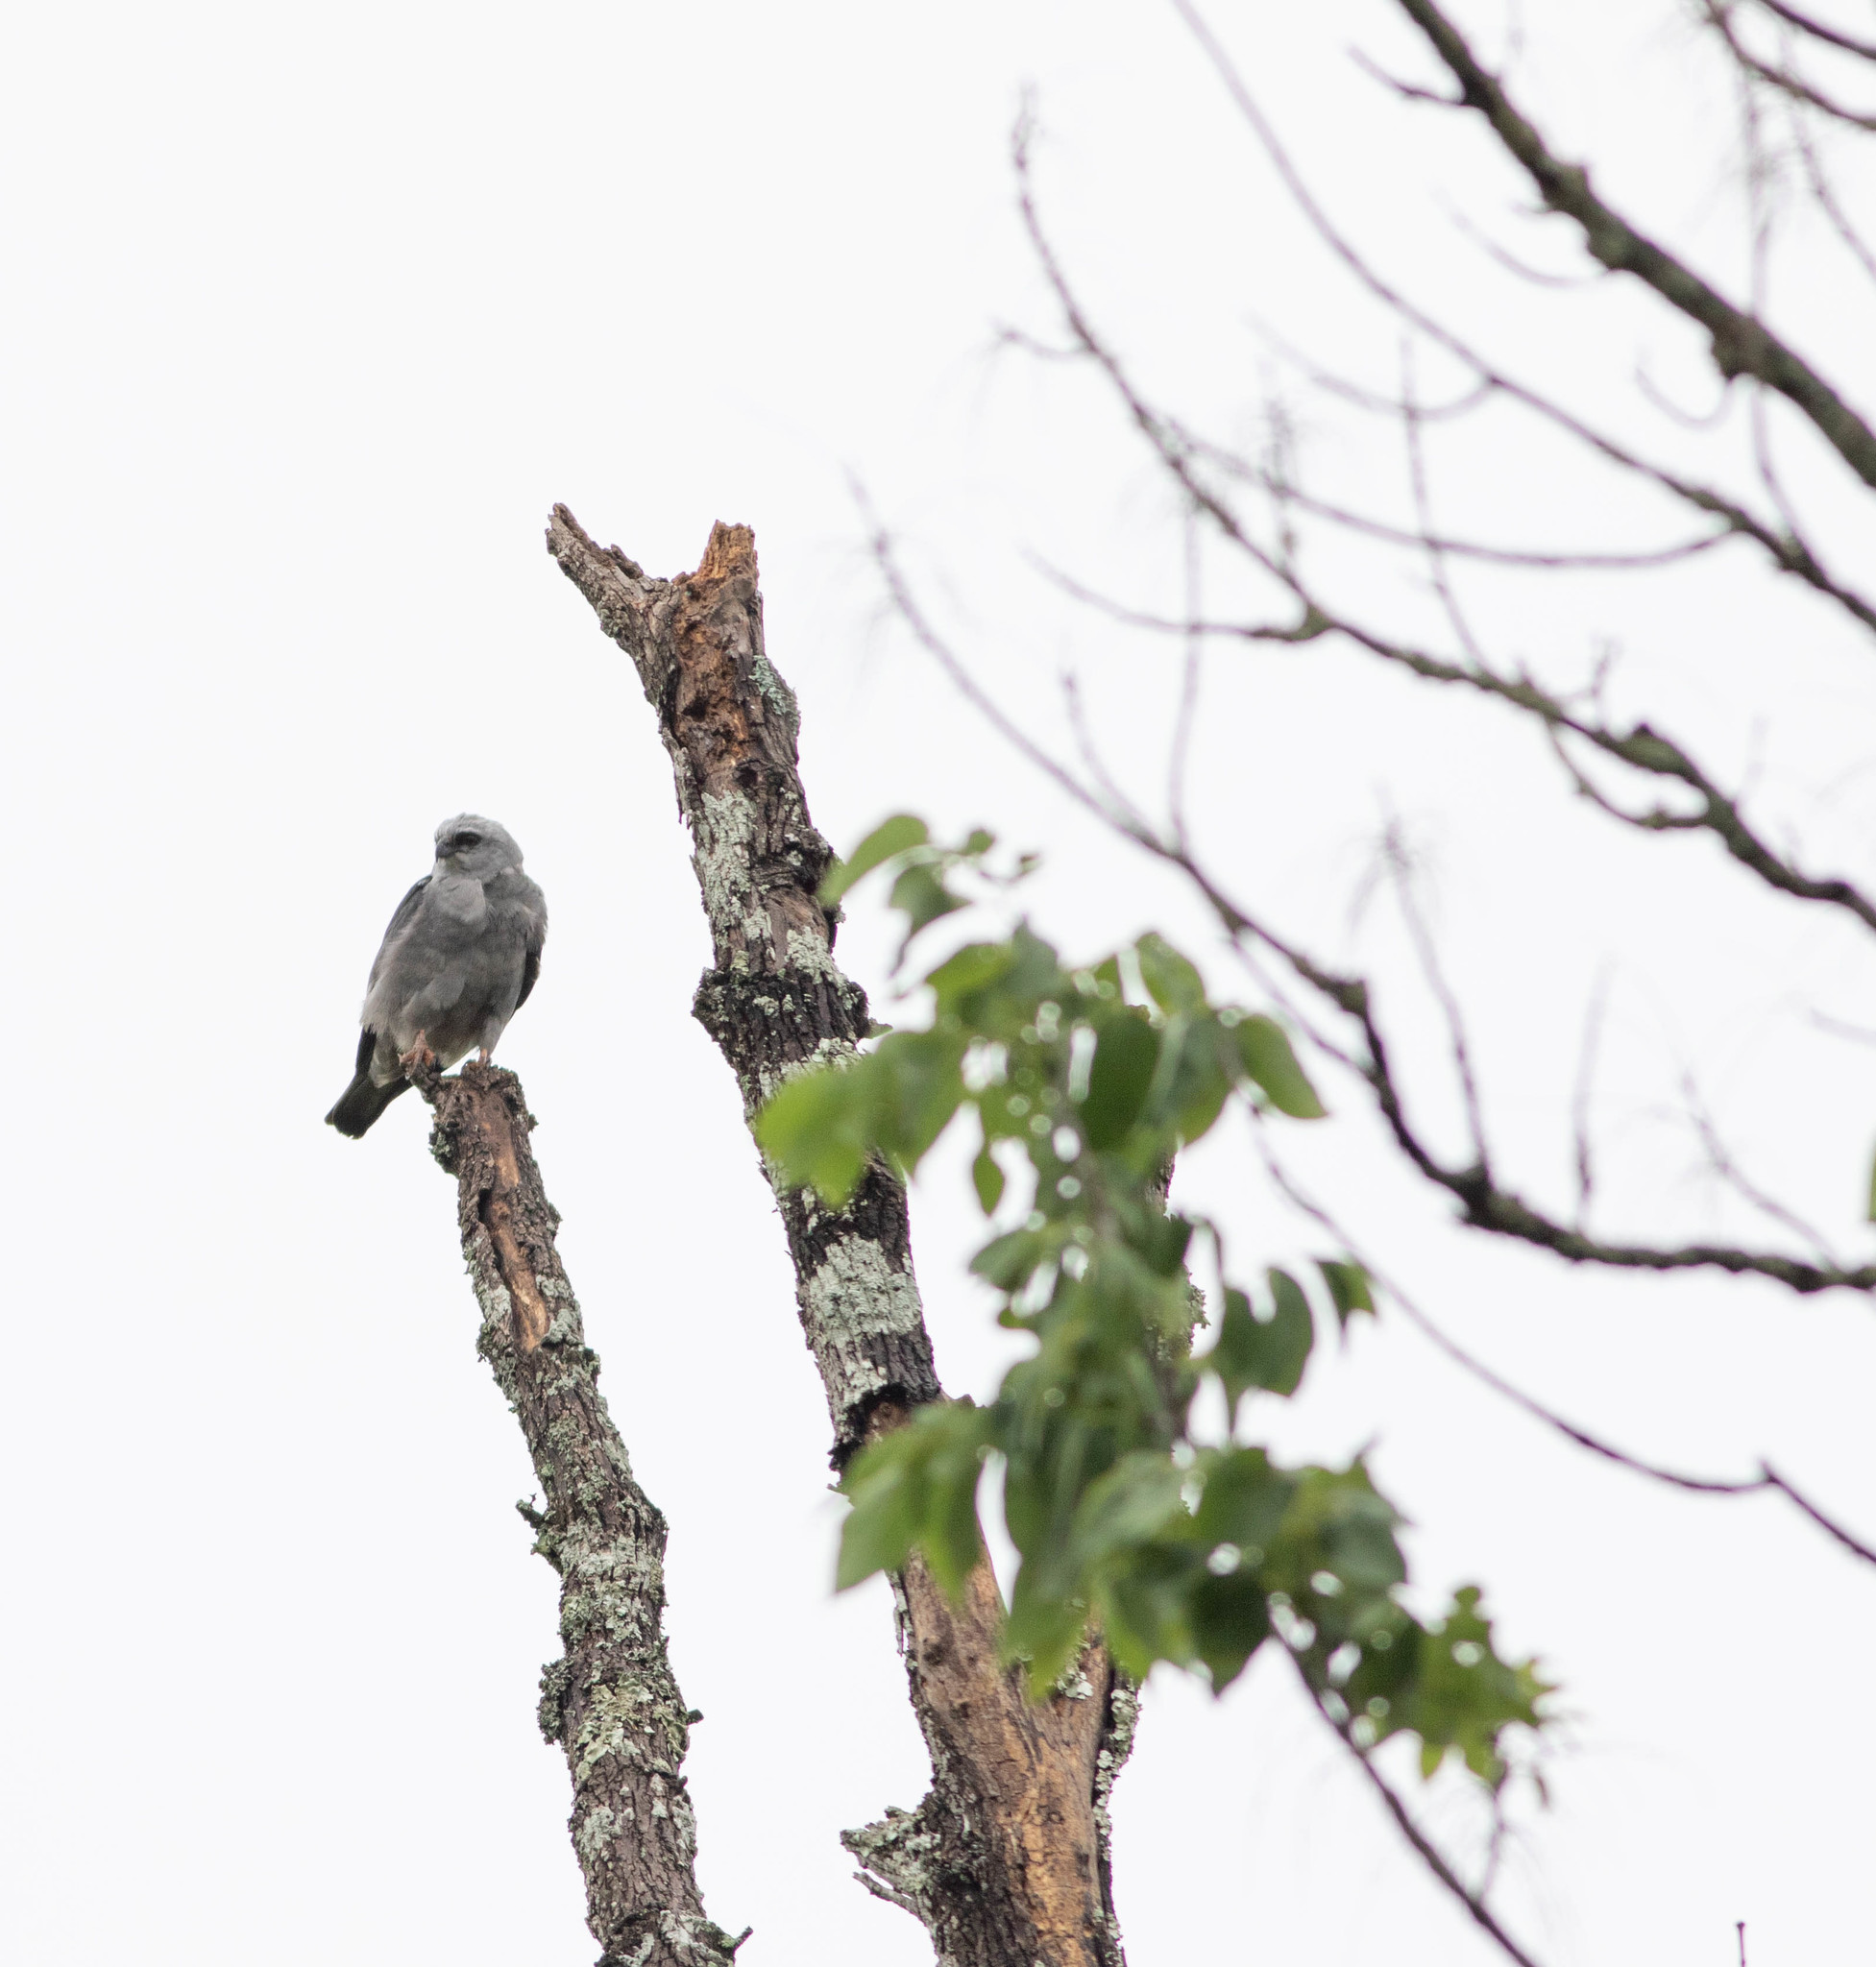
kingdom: Animalia
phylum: Chordata
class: Aves
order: Accipitriformes
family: Accipitridae
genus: Ictinia
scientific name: Ictinia mississippiensis
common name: Mississippi kite
